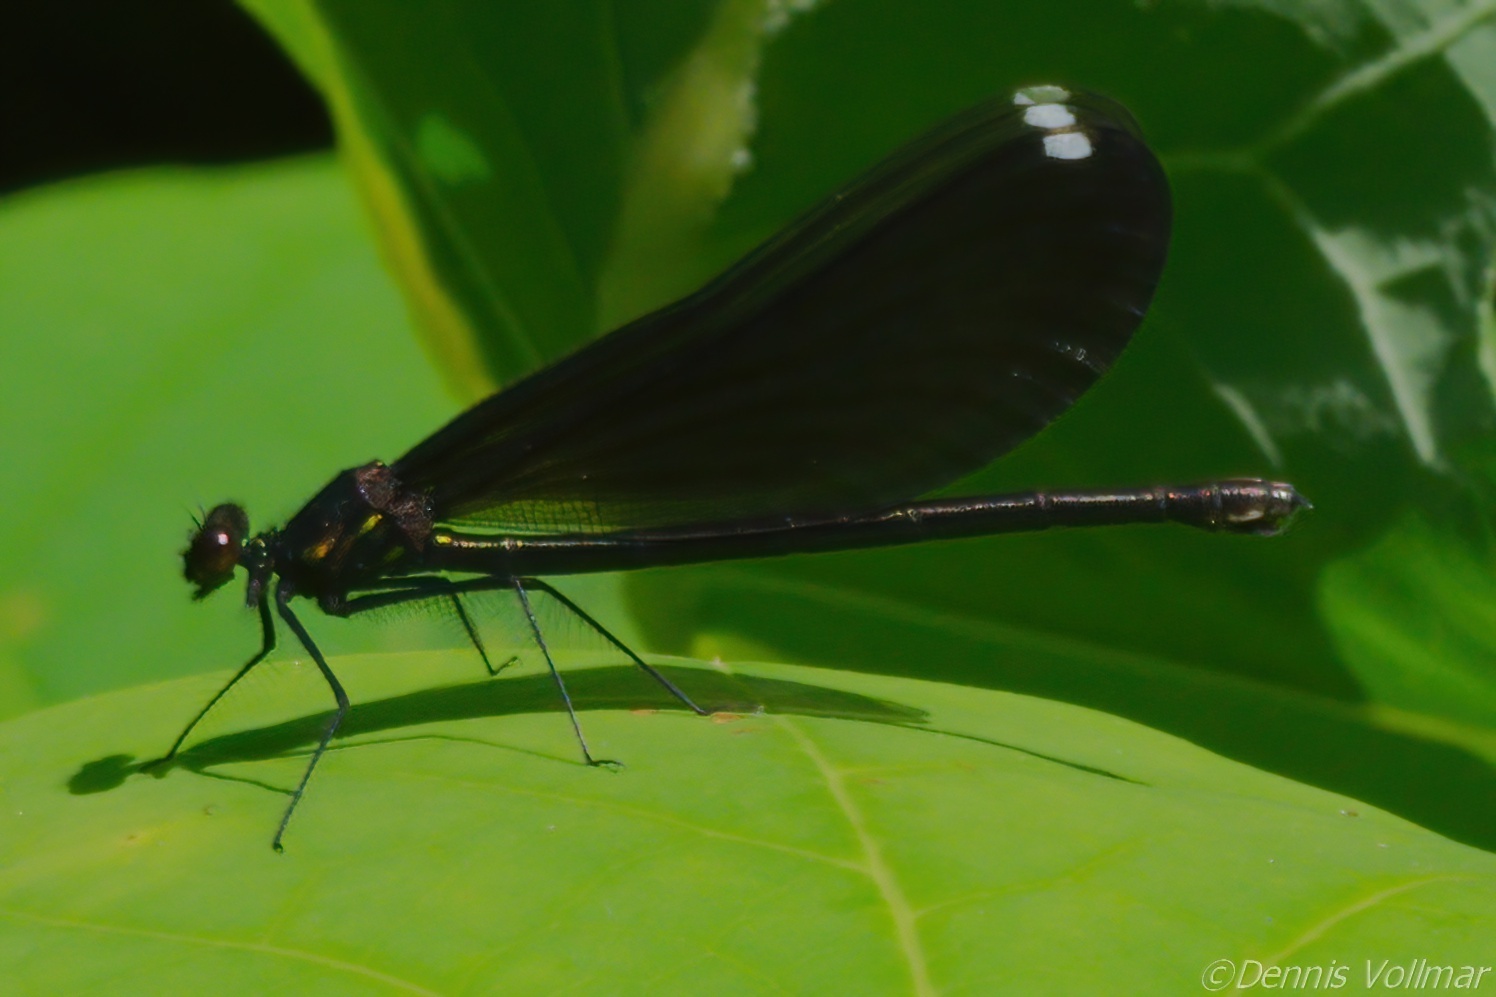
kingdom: Animalia
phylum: Arthropoda
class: Insecta
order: Odonata
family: Calopterygidae
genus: Calopteryx
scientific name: Calopteryx maculata
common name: Ebony jewelwing
